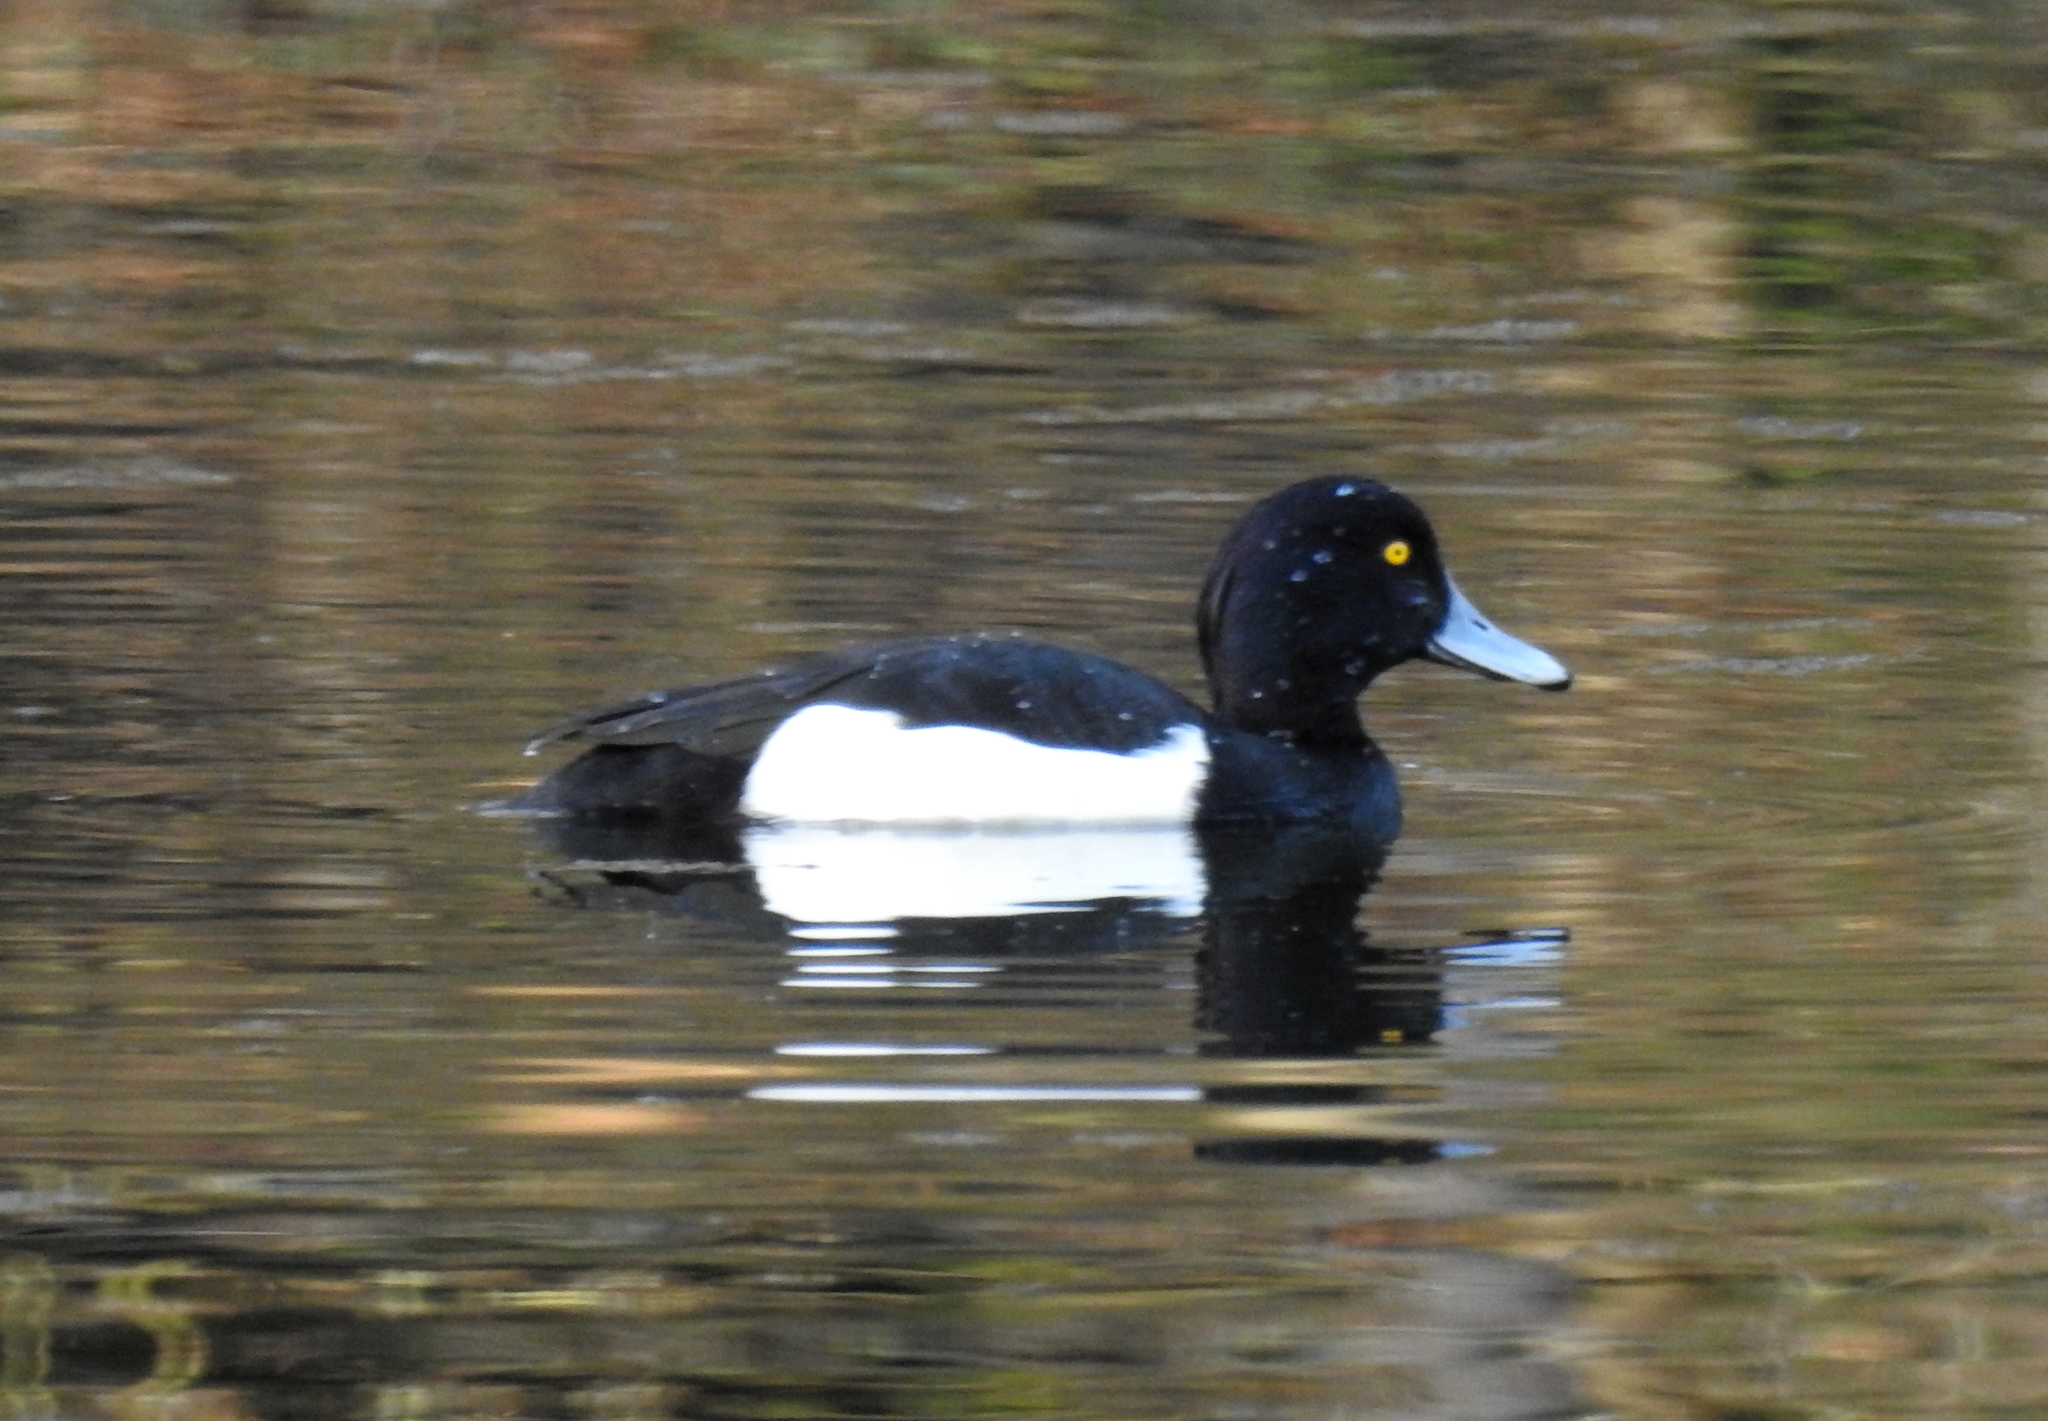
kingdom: Animalia
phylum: Chordata
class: Aves
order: Anseriformes
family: Anatidae
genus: Aythya
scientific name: Aythya fuligula
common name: Tufted duck
